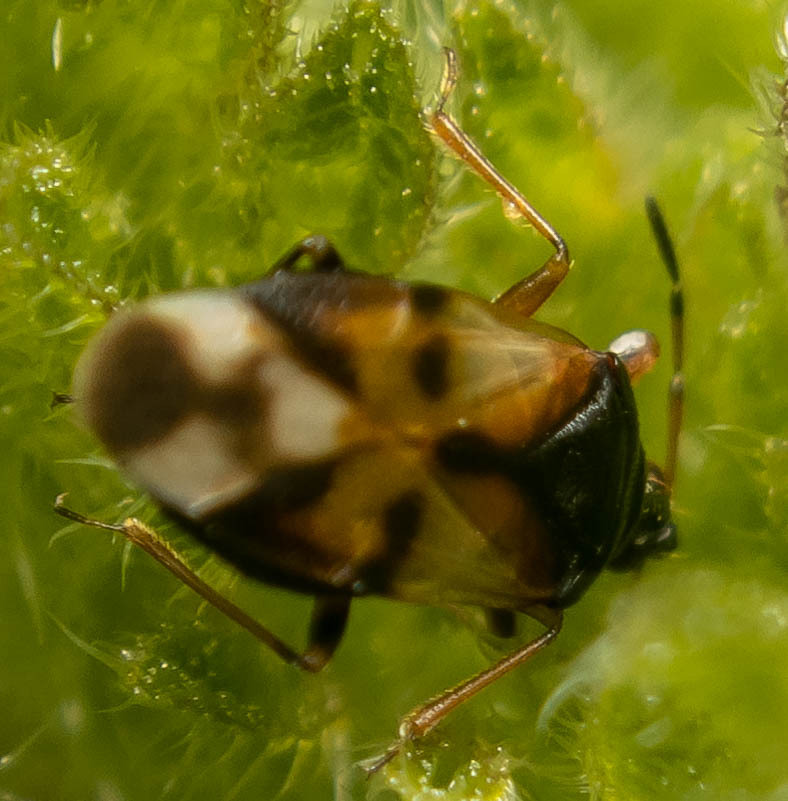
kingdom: Animalia
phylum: Arthropoda
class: Insecta
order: Hemiptera
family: Anthocoridae
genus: Anthocoris
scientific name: Anthocoris nemorum
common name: Minute pirate bug
